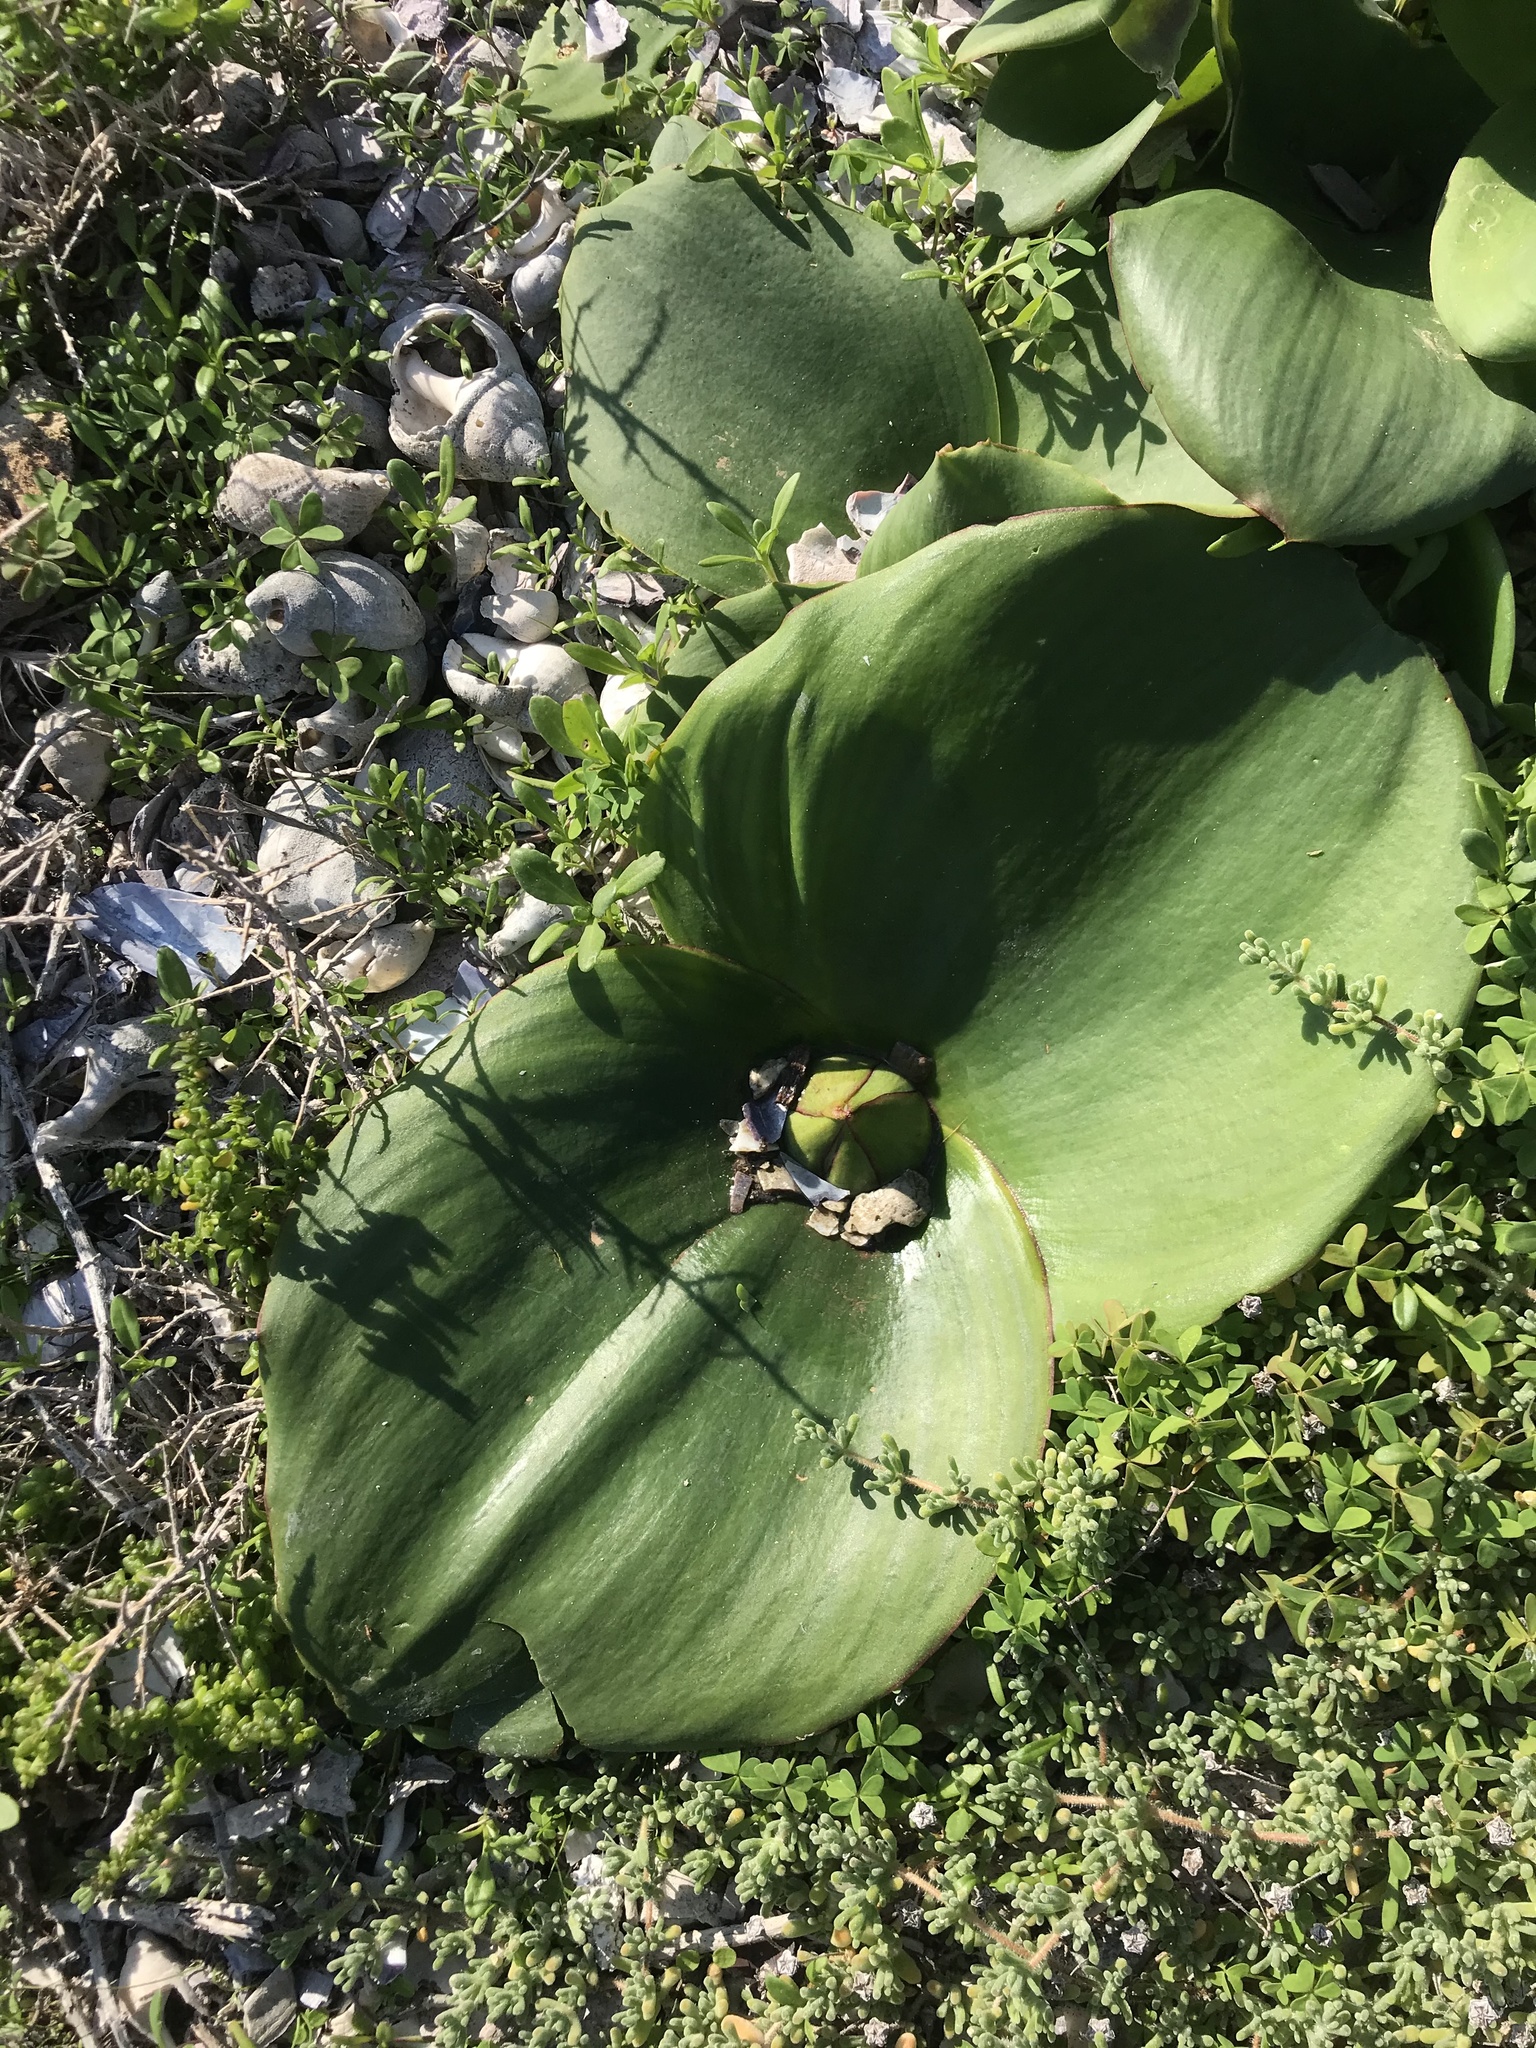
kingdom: Plantae
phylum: Tracheophyta
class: Liliopsida
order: Asparagales
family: Asparagaceae
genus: Massonia
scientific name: Massonia depressa
